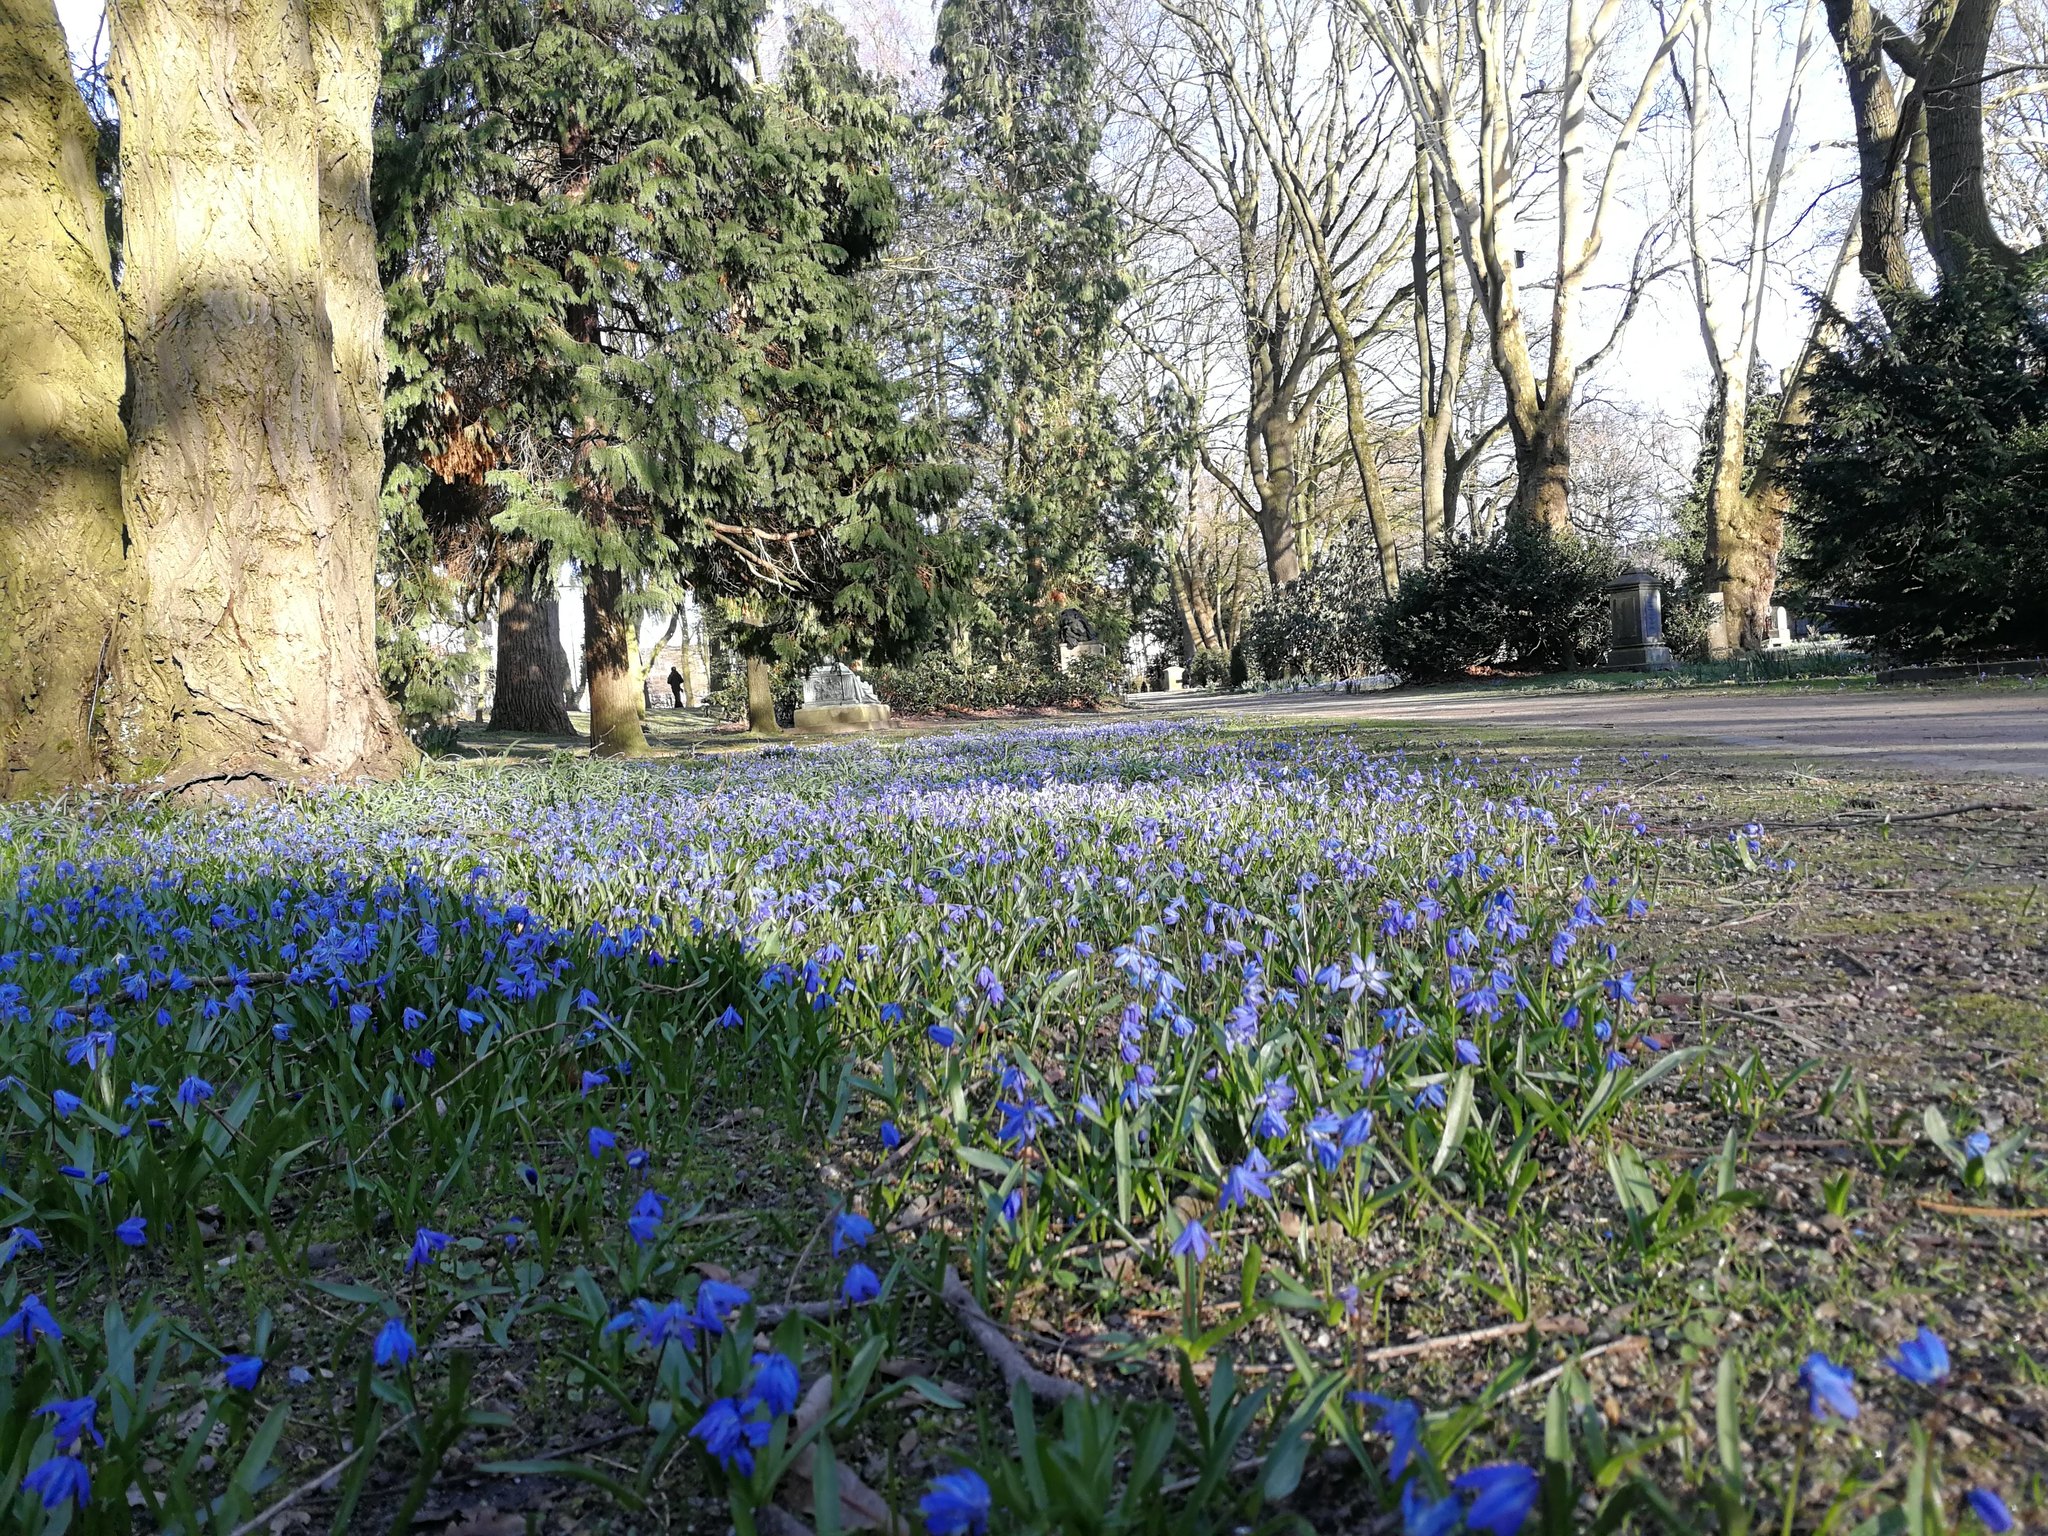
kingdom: Plantae
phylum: Tracheophyta
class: Liliopsida
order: Asparagales
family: Asparagaceae
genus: Scilla
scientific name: Scilla siberica
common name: Siberian squill
